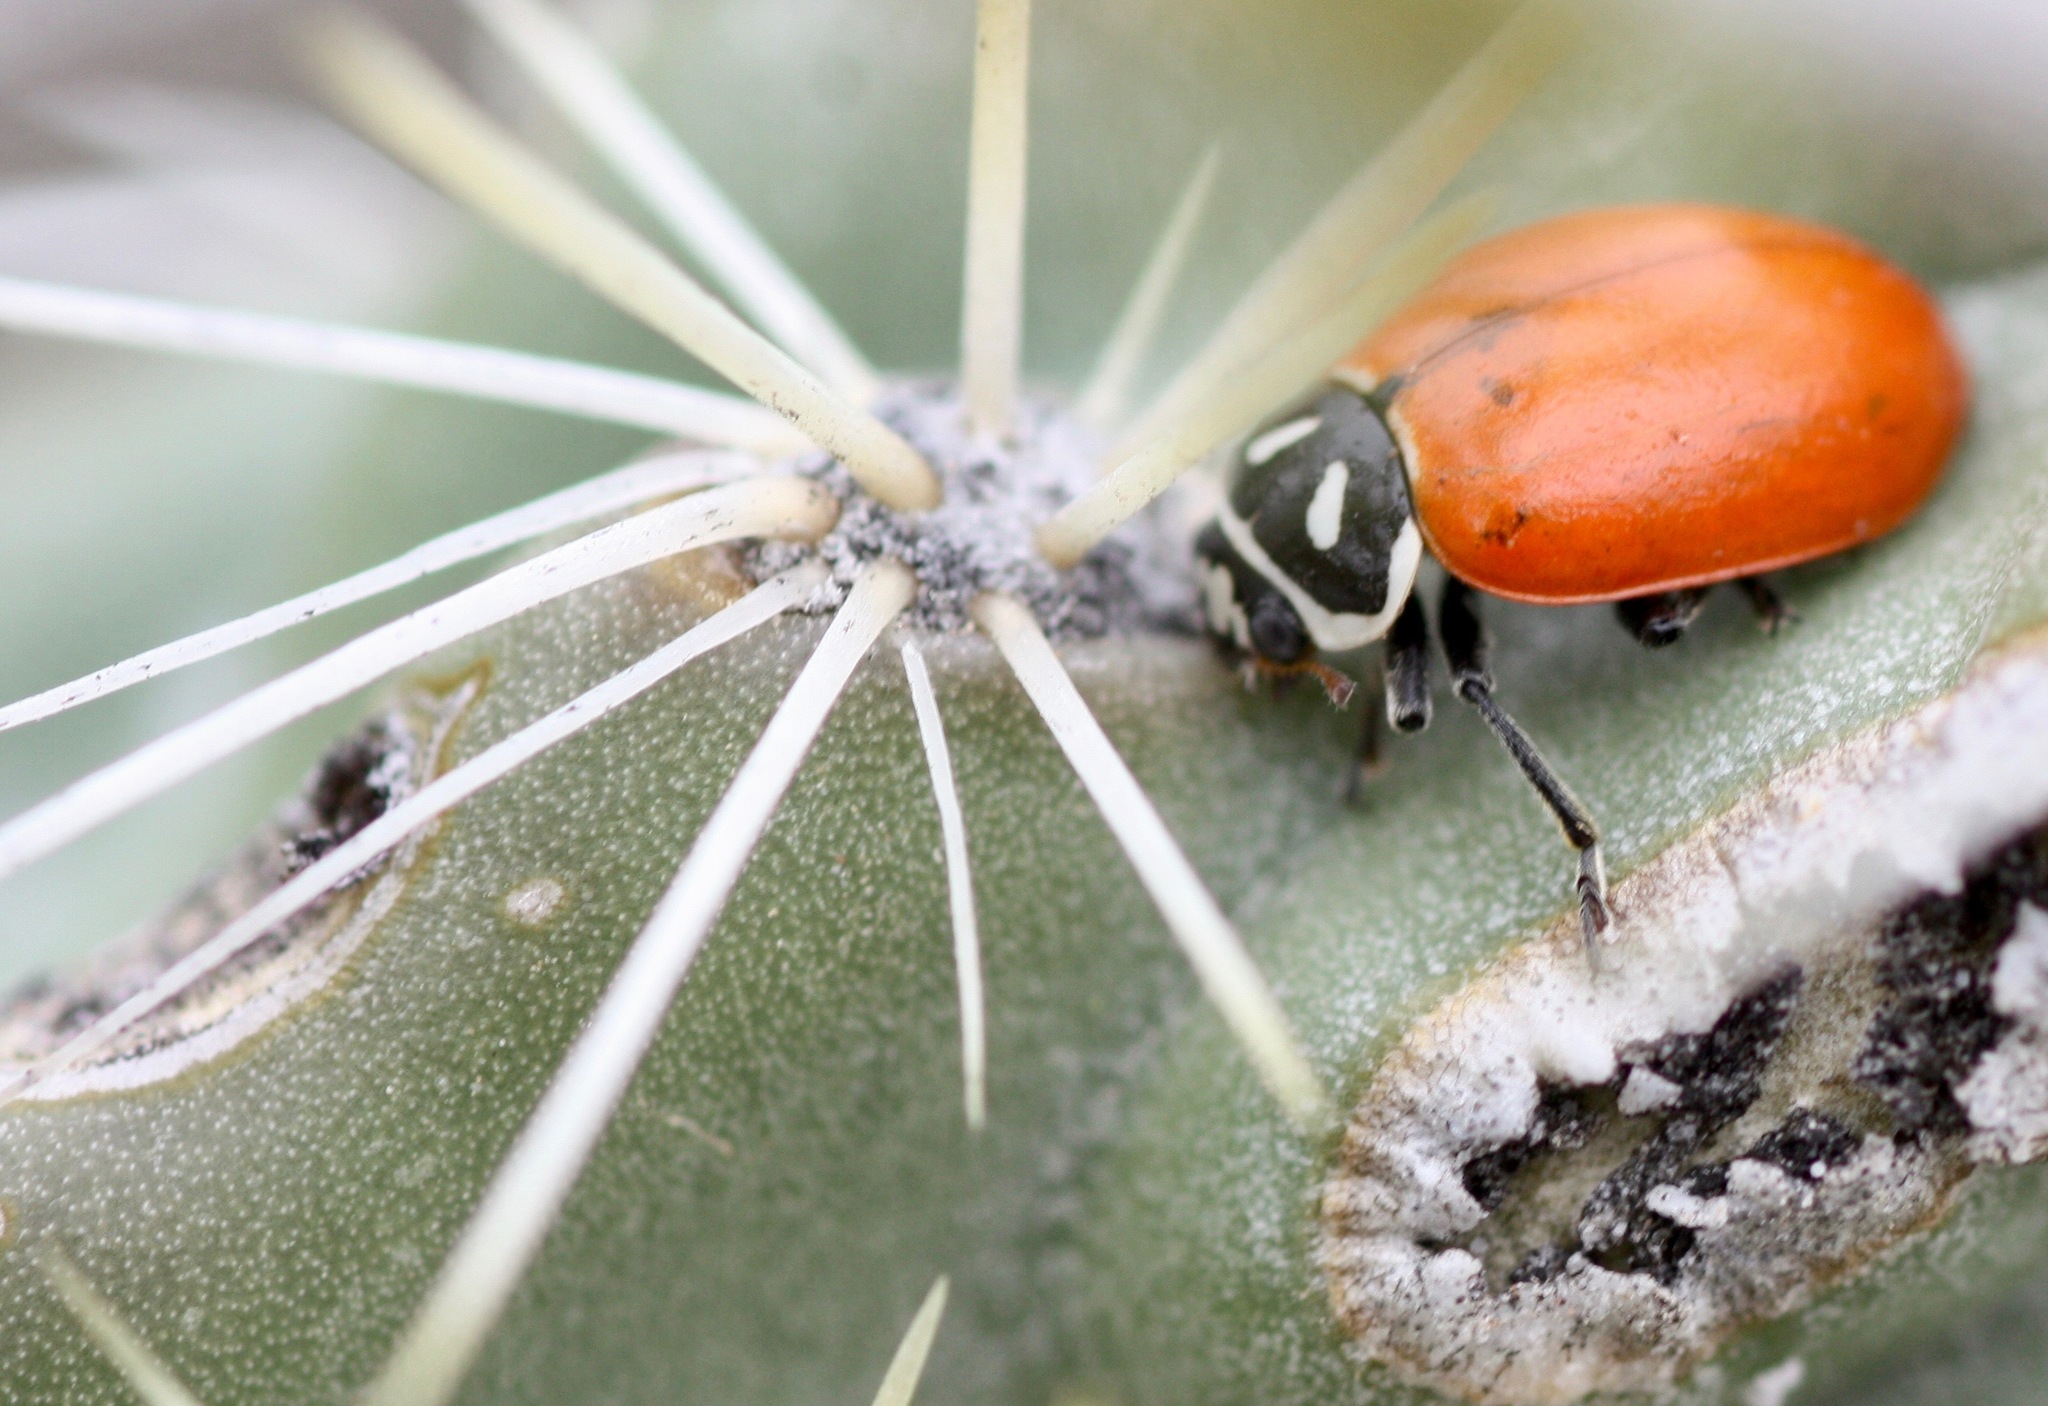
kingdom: Animalia
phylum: Arthropoda
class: Insecta
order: Coleoptera
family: Coccinellidae
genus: Hippodamia
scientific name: Hippodamia convergens
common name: Convergent lady beetle
